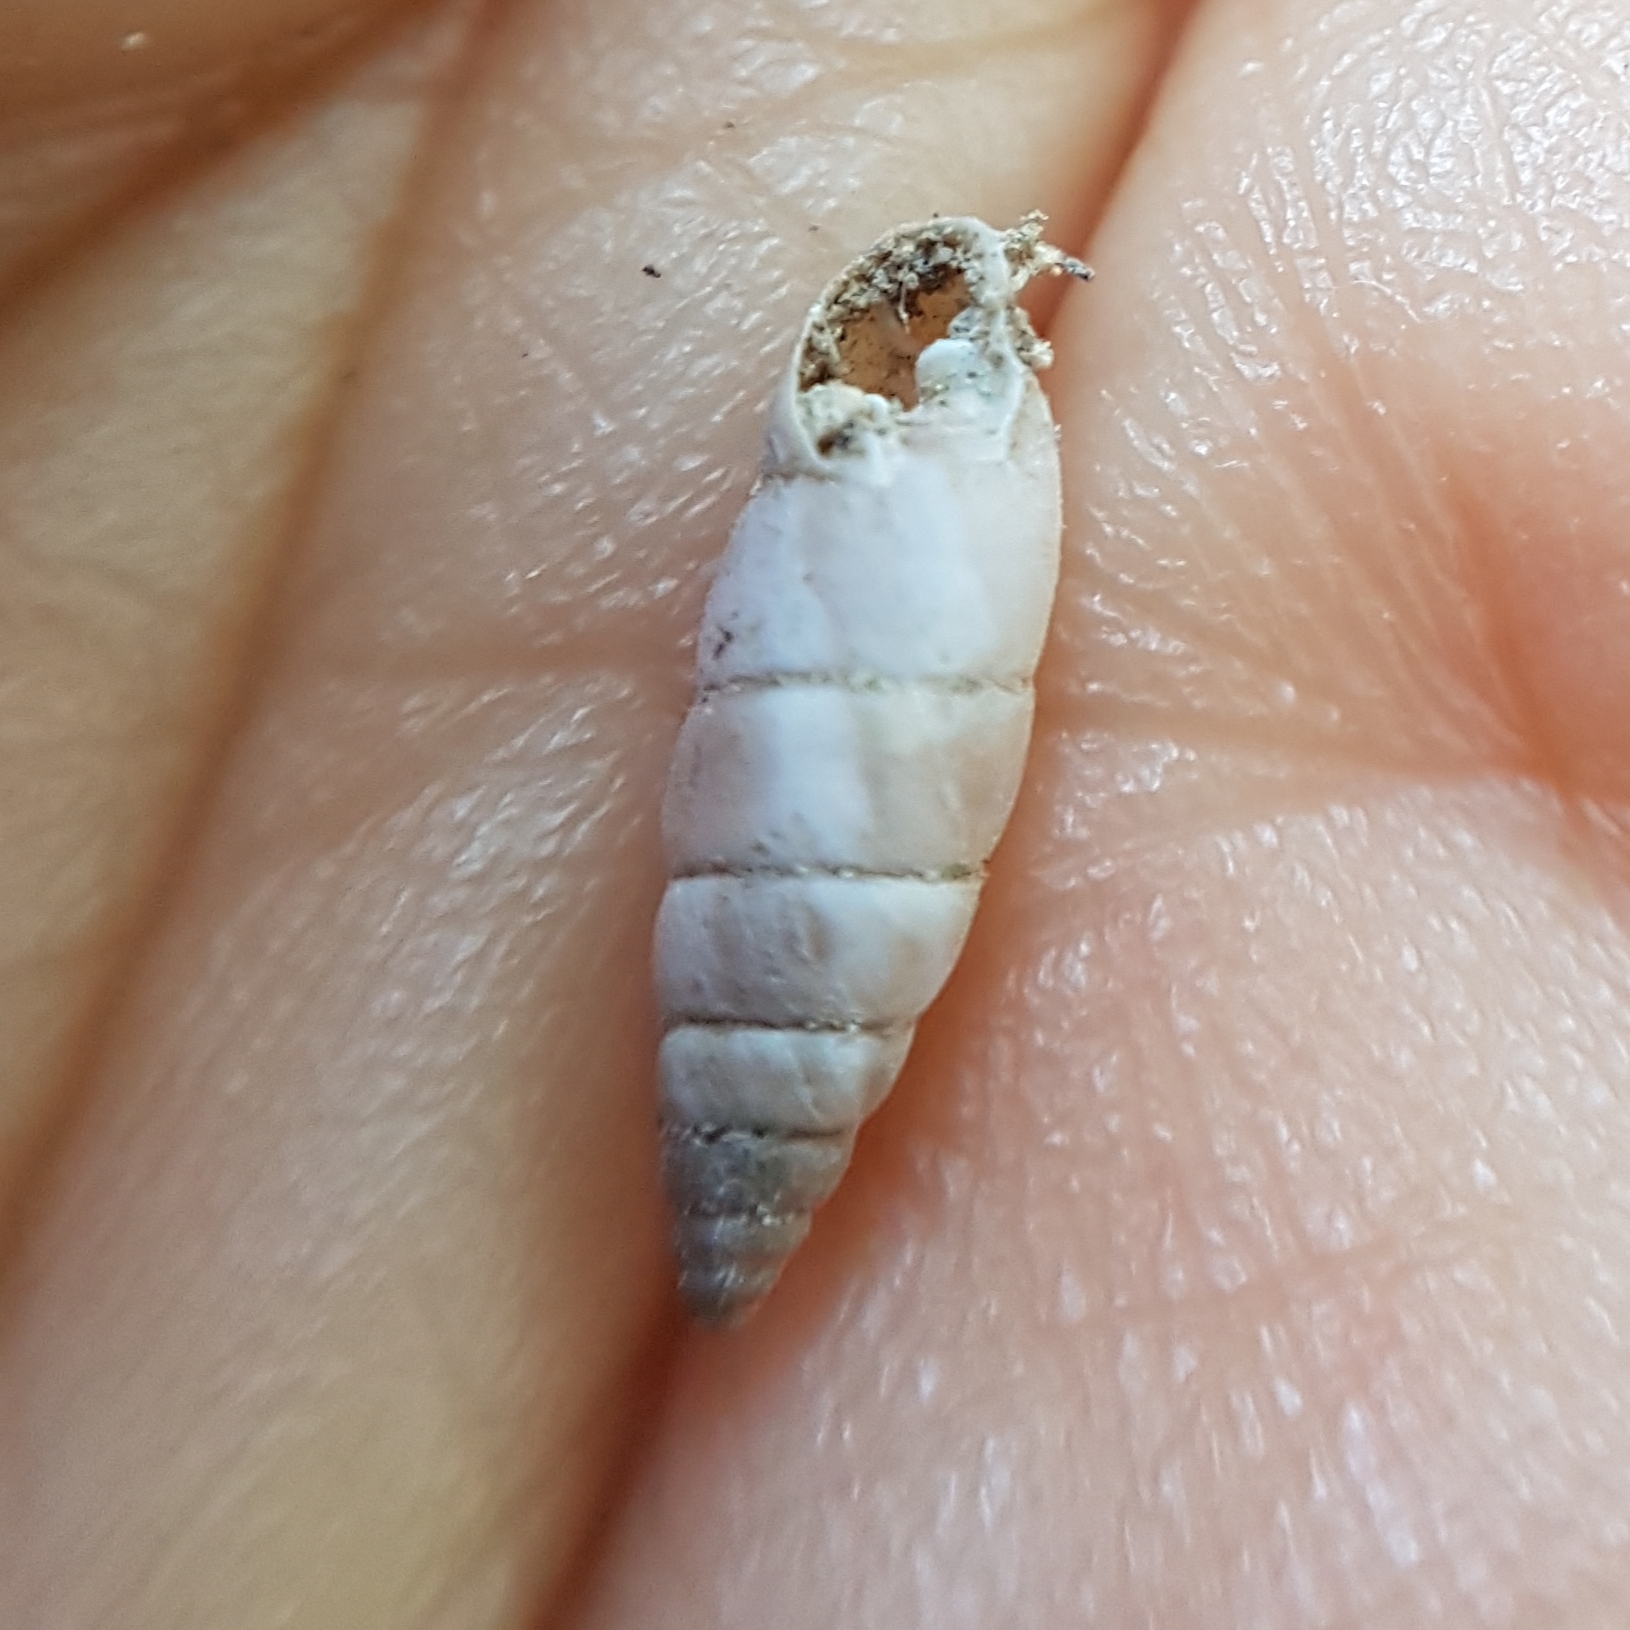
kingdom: Animalia
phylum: Mollusca
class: Gastropoda
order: Stylommatophora
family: Chondrinidae
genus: Solatopupa
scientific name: Solatopupa similis
